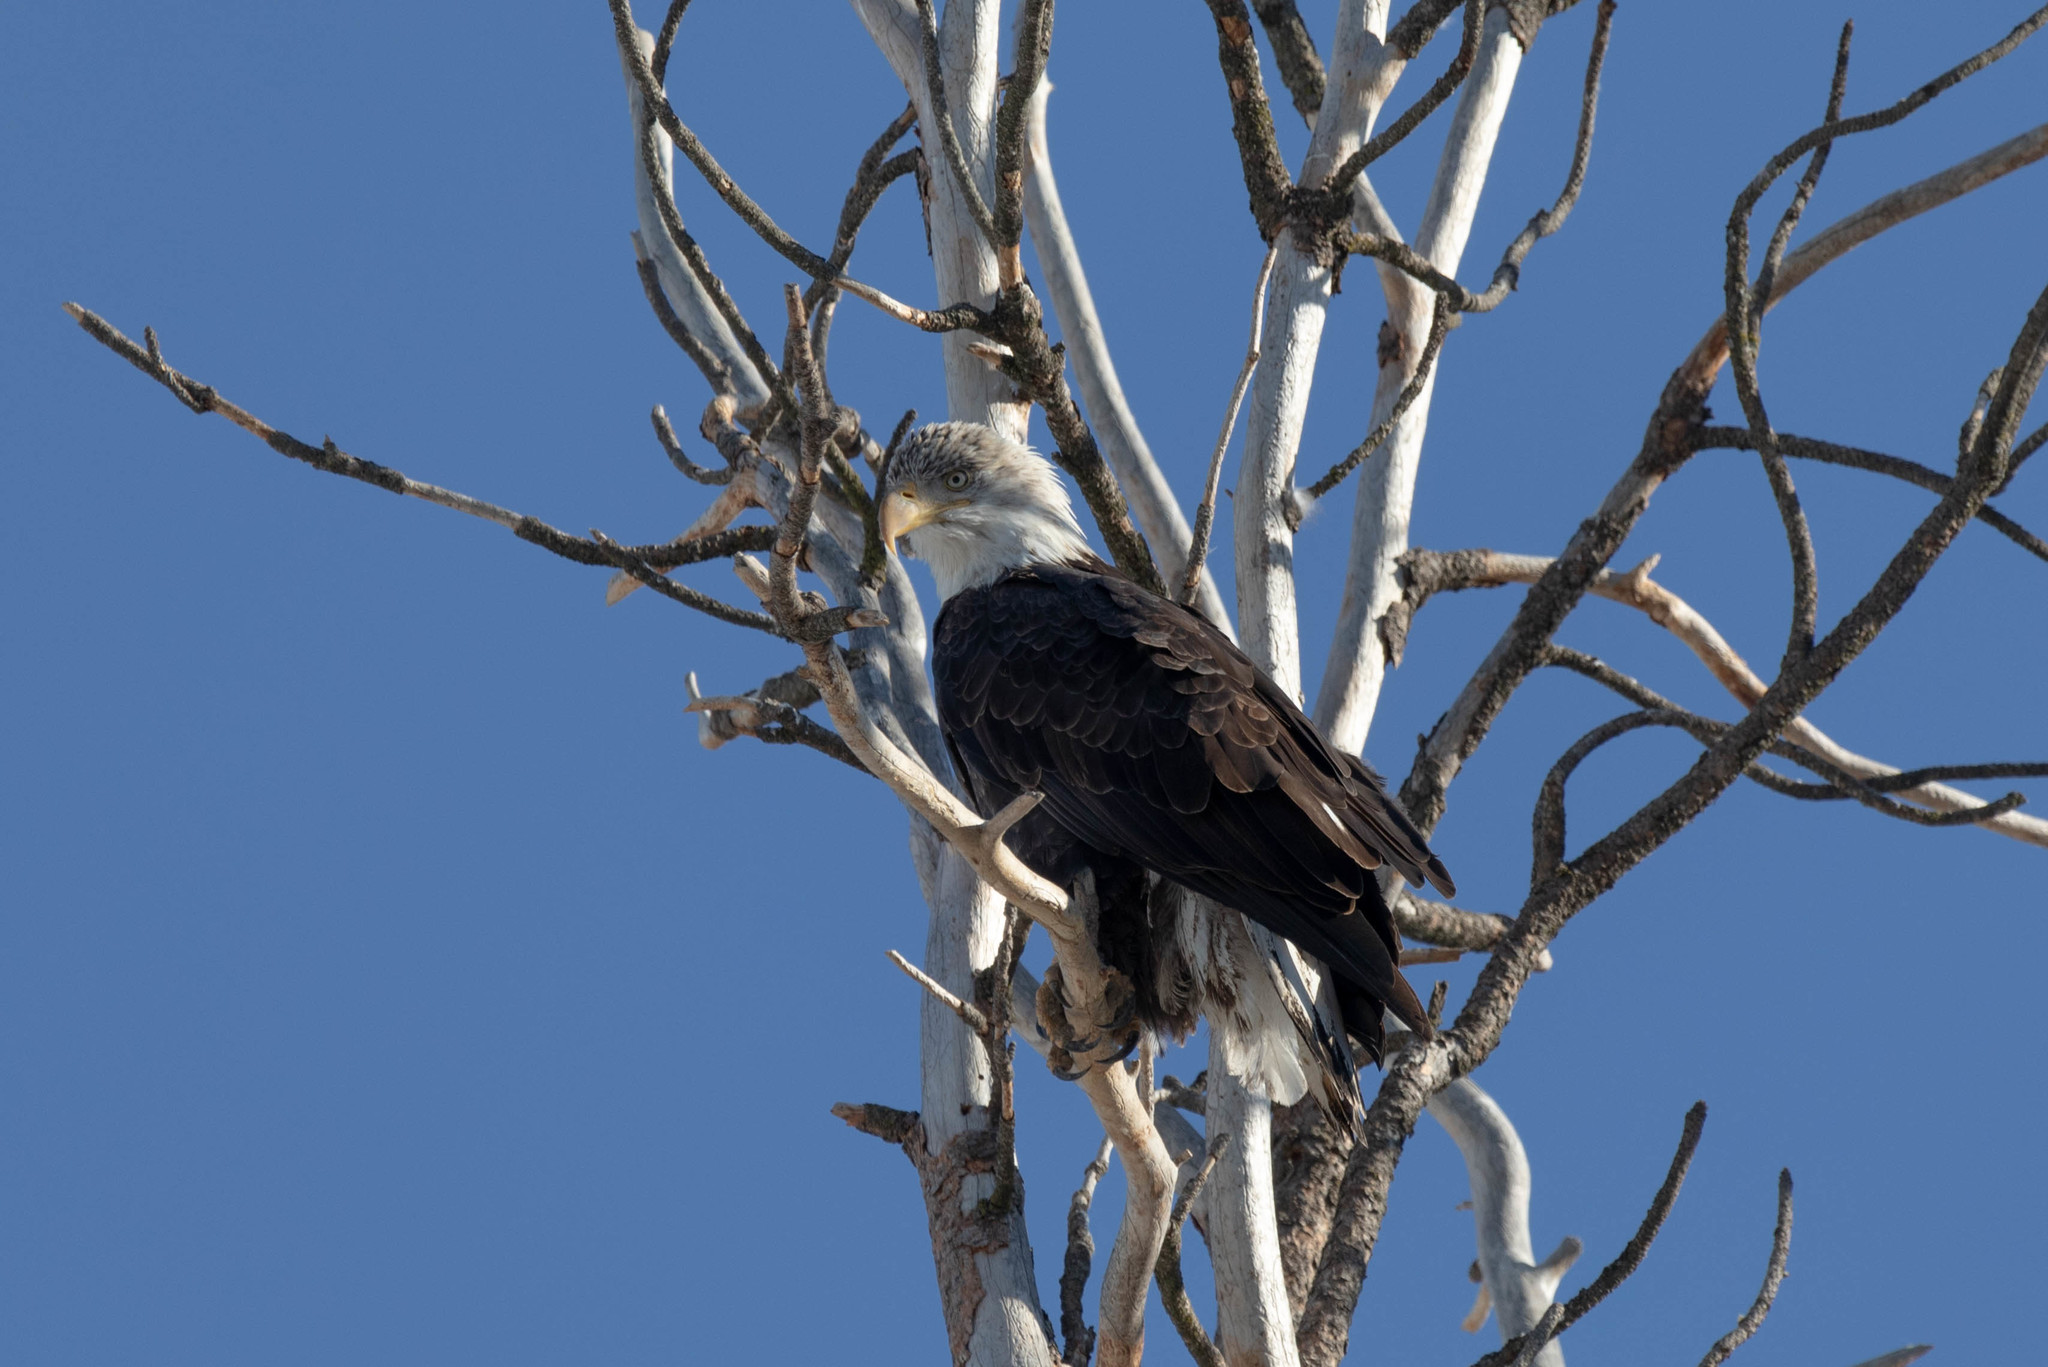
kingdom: Animalia
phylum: Chordata
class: Aves
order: Accipitriformes
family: Accipitridae
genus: Haliaeetus
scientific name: Haliaeetus leucocephalus
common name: Bald eagle
